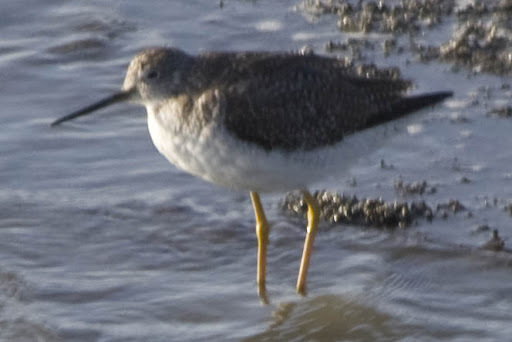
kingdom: Animalia
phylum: Chordata
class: Aves
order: Charadriiformes
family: Scolopacidae
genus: Tringa
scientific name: Tringa melanoleuca
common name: Greater yellowlegs
